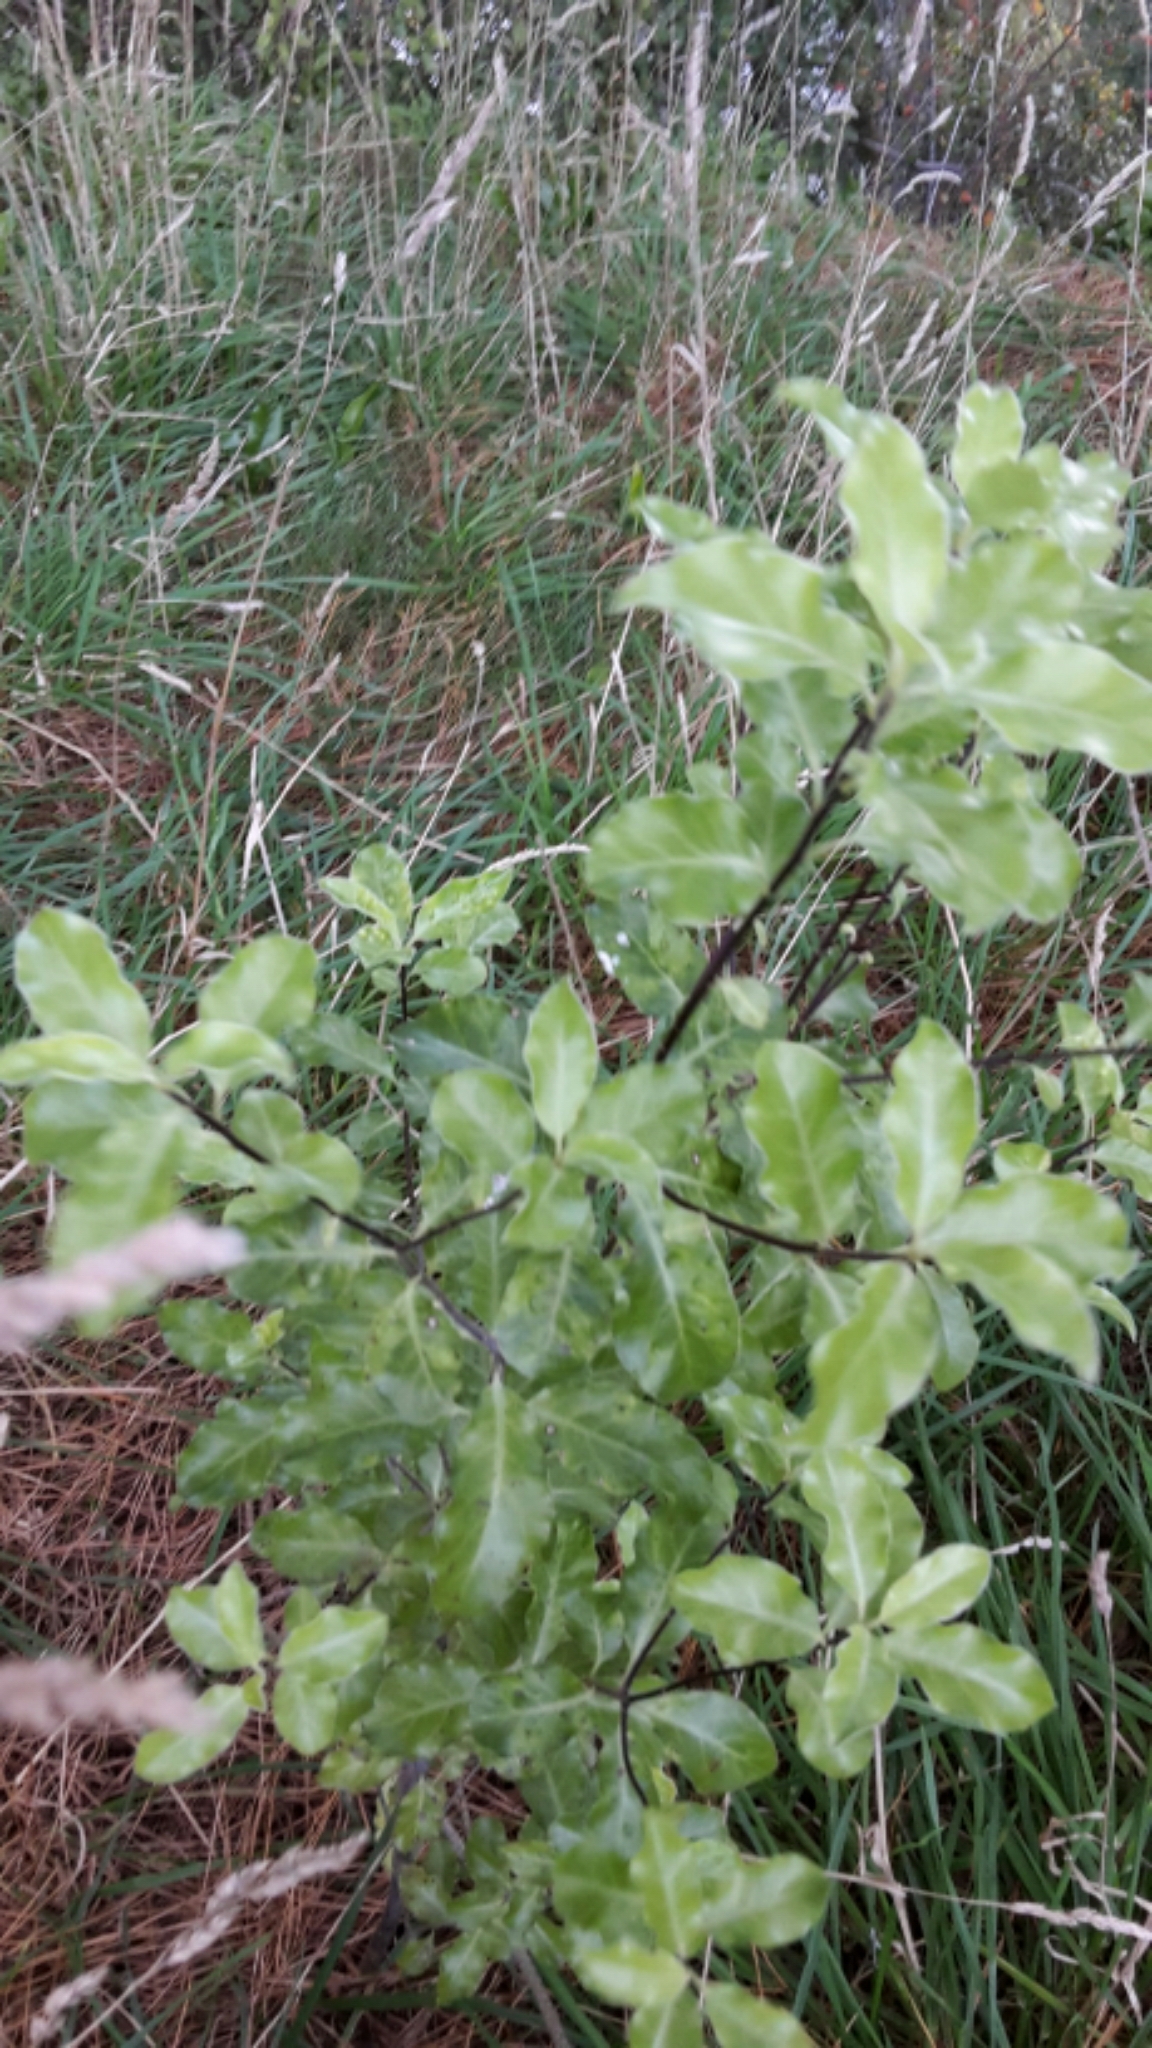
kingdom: Plantae
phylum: Tracheophyta
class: Magnoliopsida
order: Apiales
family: Pittosporaceae
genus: Pittosporum
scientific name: Pittosporum tenuifolium
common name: Kohuhu
